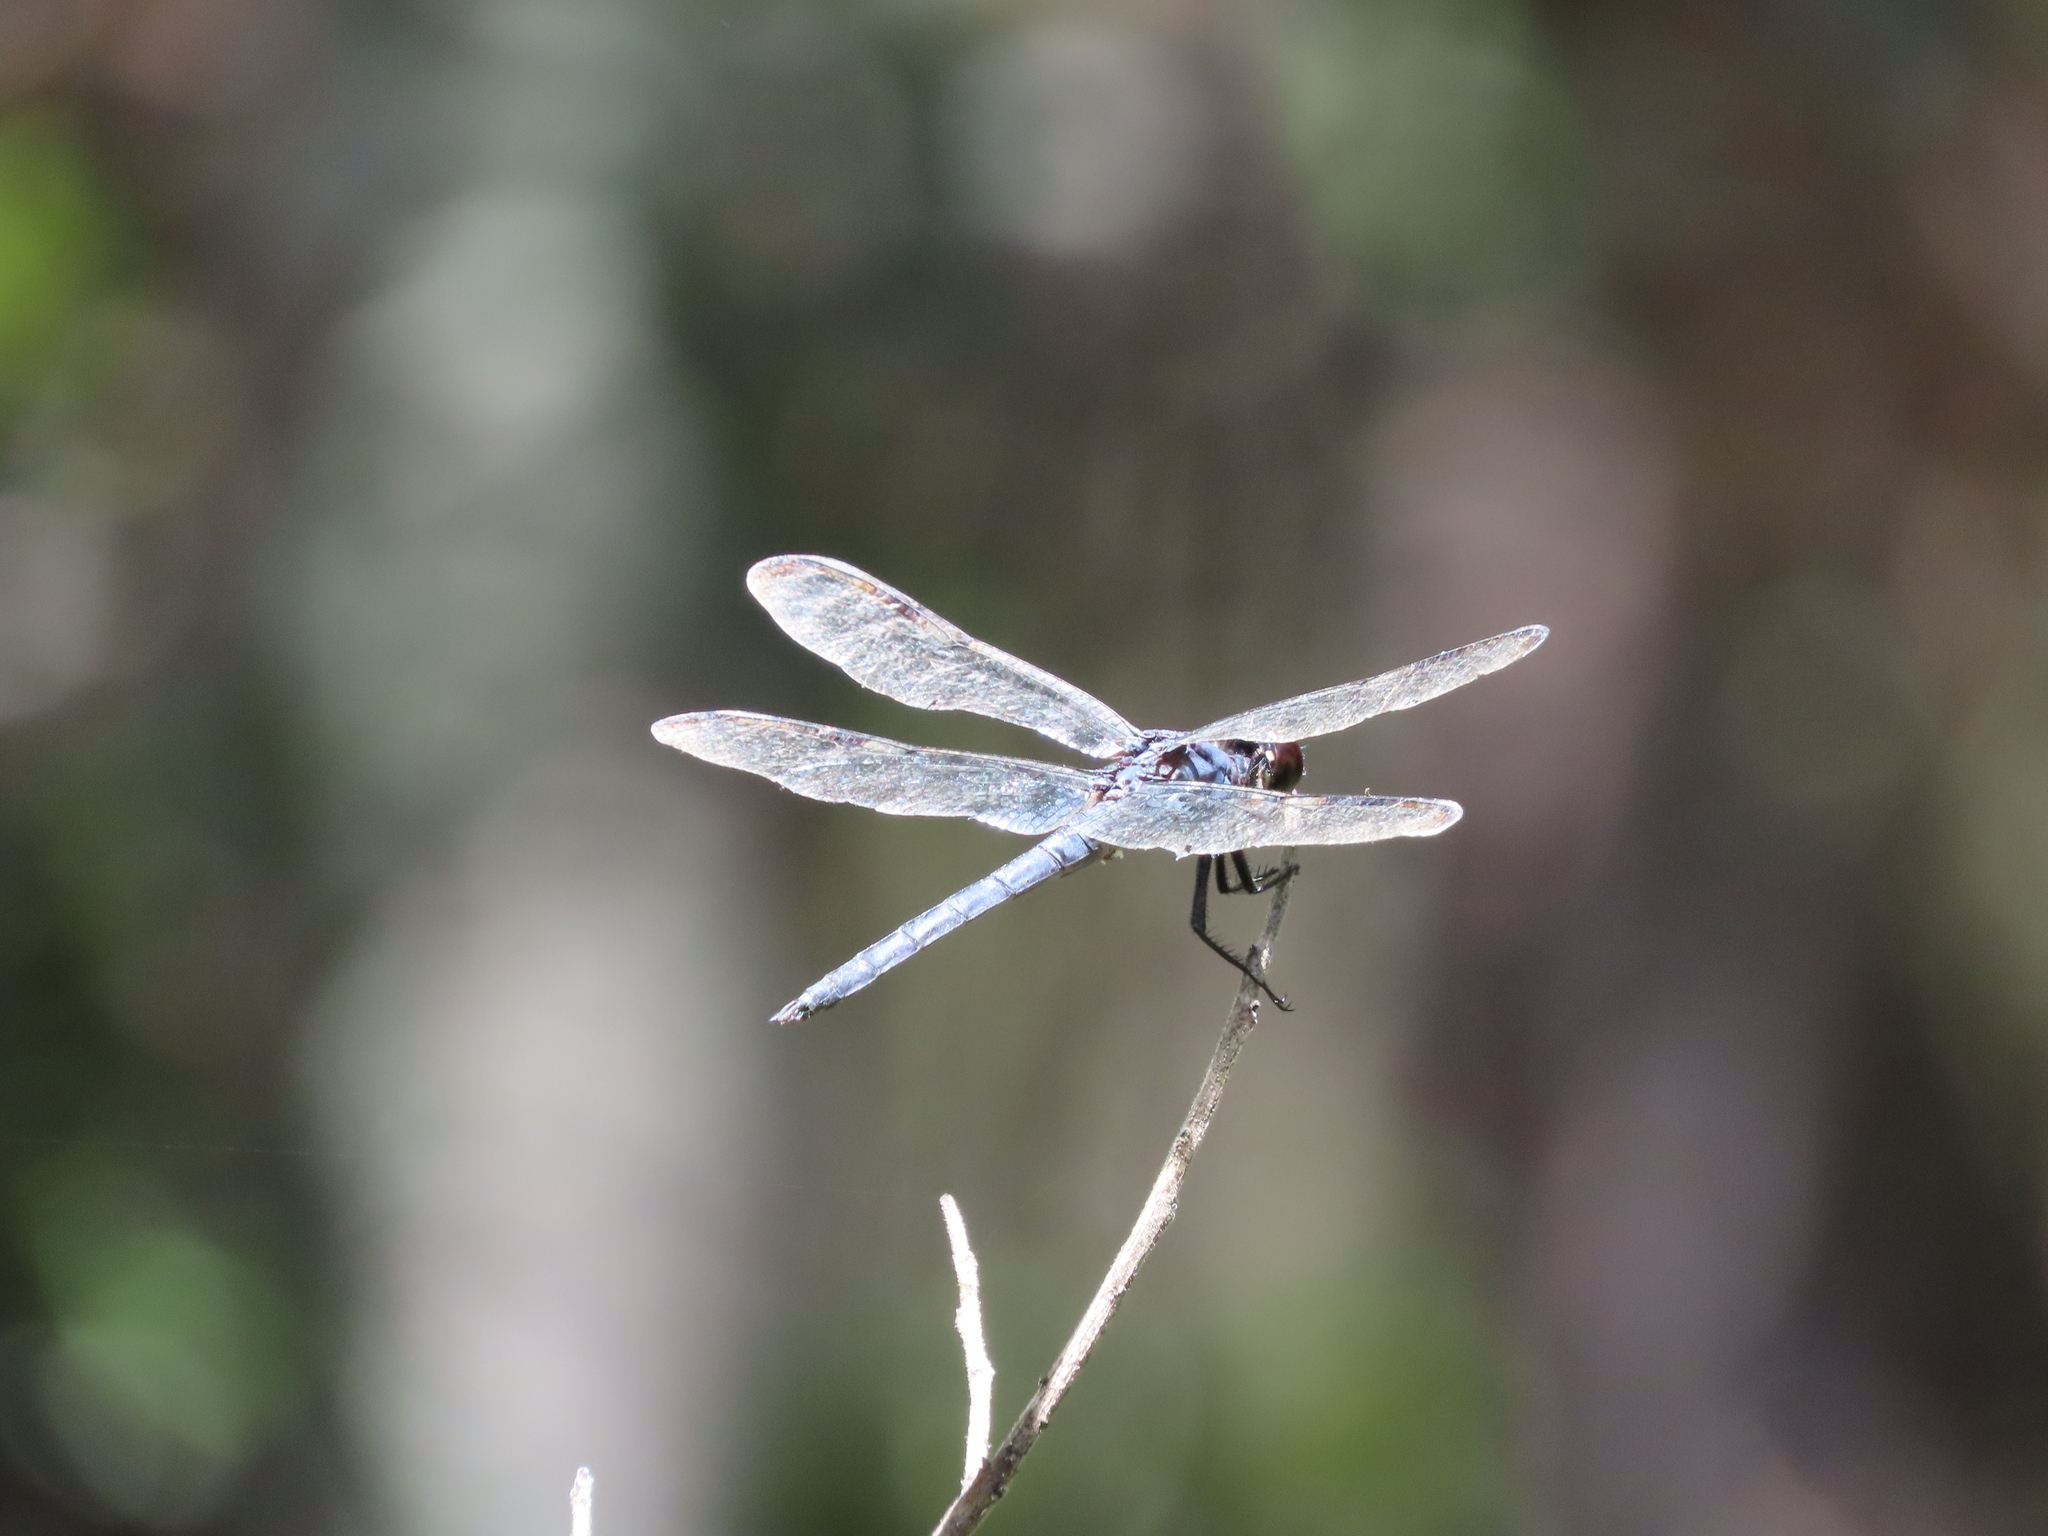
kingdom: Animalia
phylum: Arthropoda
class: Insecta
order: Odonata
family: Libellulidae
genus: Libellula
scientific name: Libellula incesta
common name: Slaty skimmer
